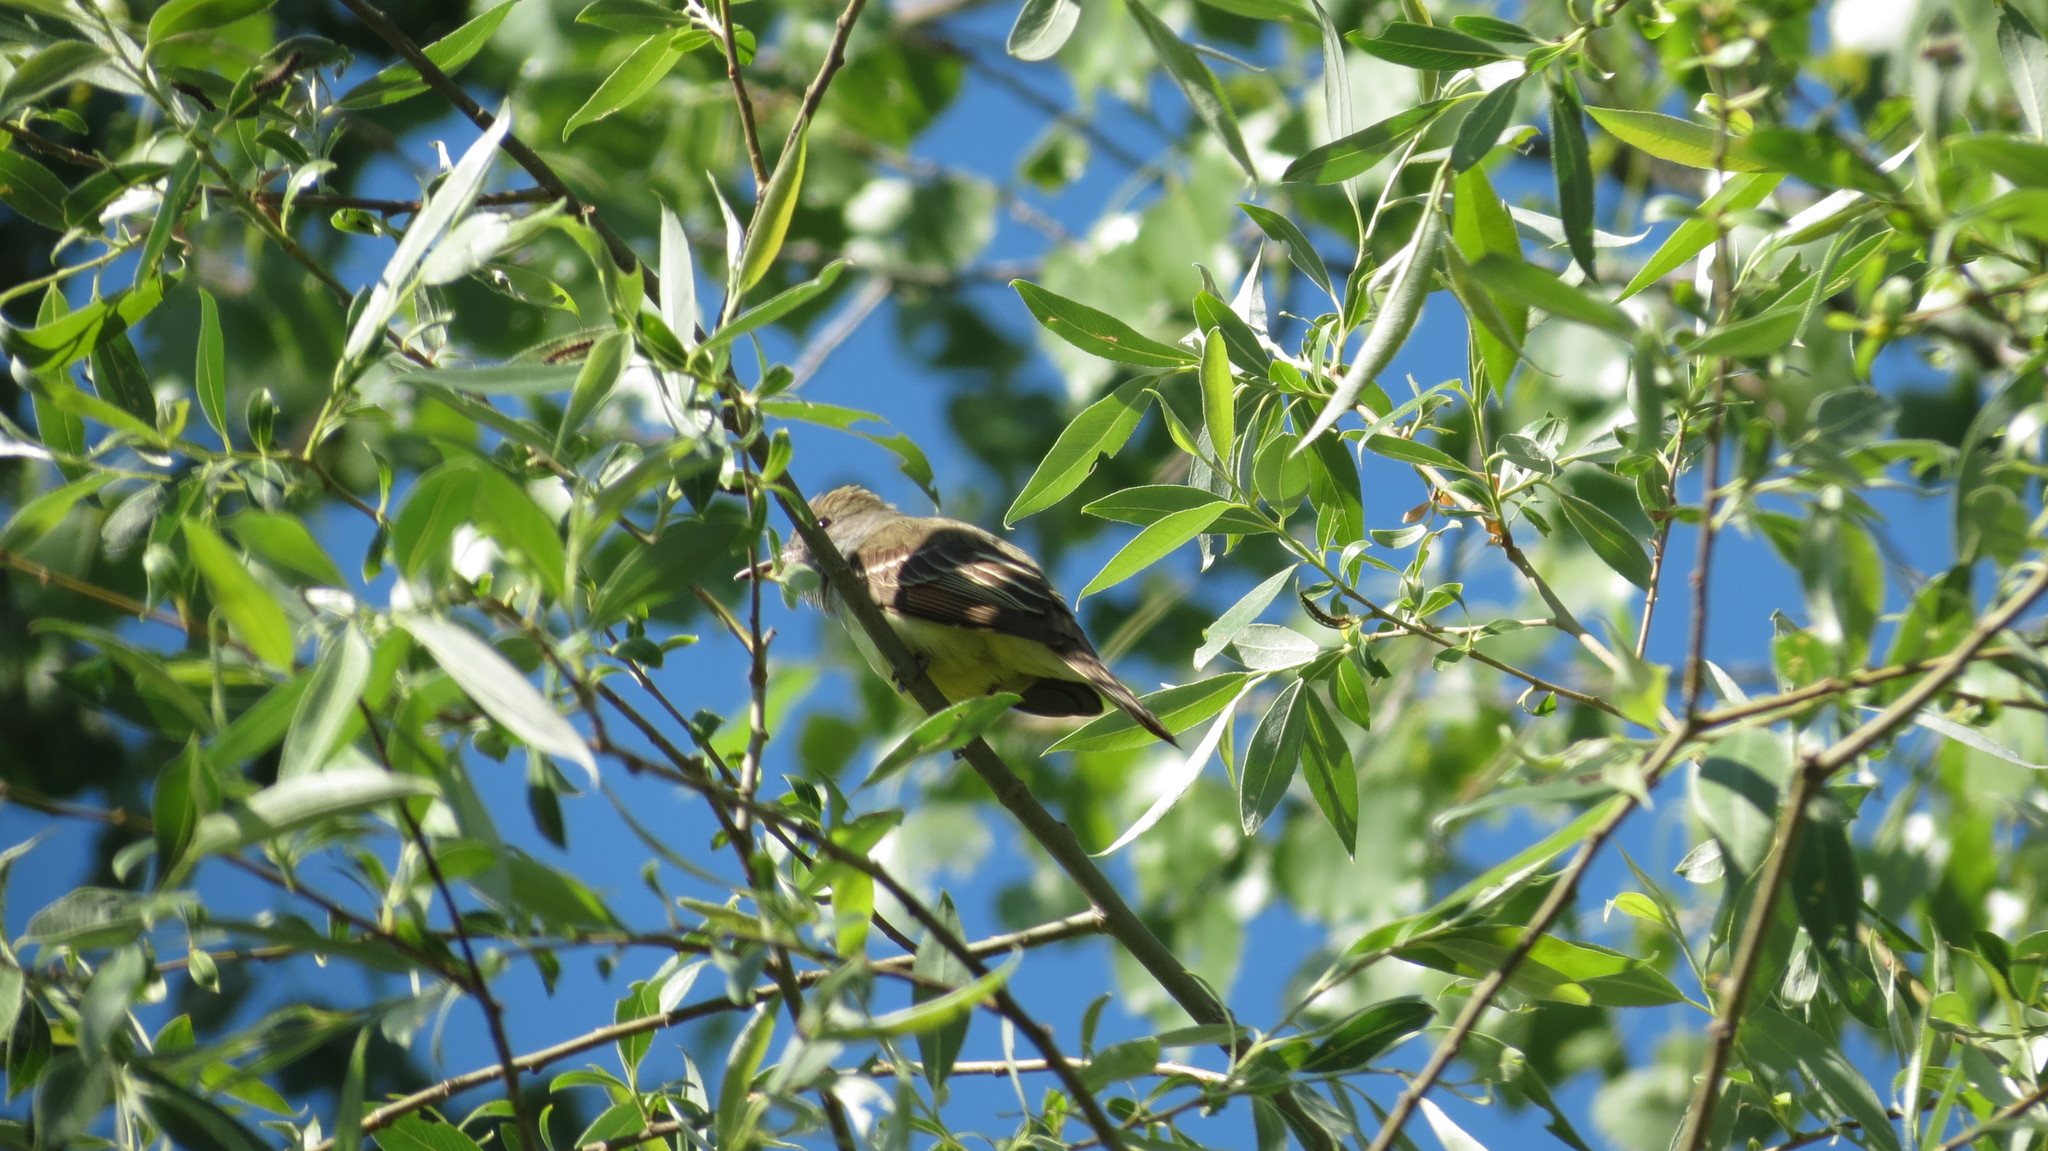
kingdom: Animalia
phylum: Chordata
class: Aves
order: Passeriformes
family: Tyrannidae
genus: Myiarchus
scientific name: Myiarchus crinitus
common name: Great crested flycatcher
